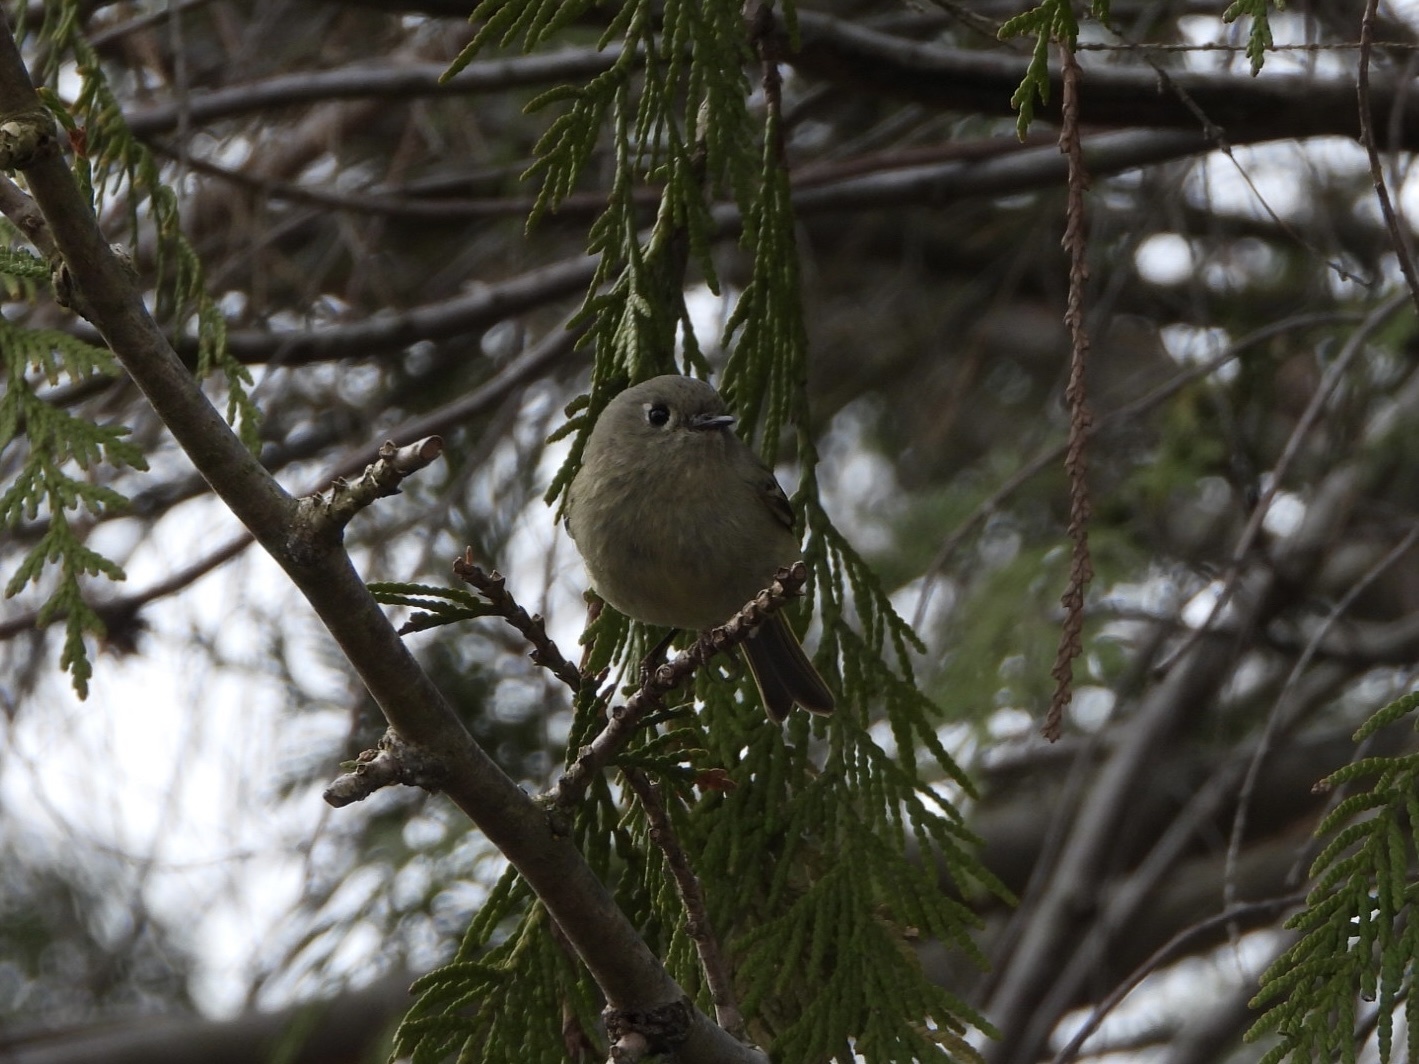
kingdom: Animalia
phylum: Chordata
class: Aves
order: Passeriformes
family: Regulidae
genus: Regulus
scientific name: Regulus calendula
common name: Ruby-crowned kinglet
